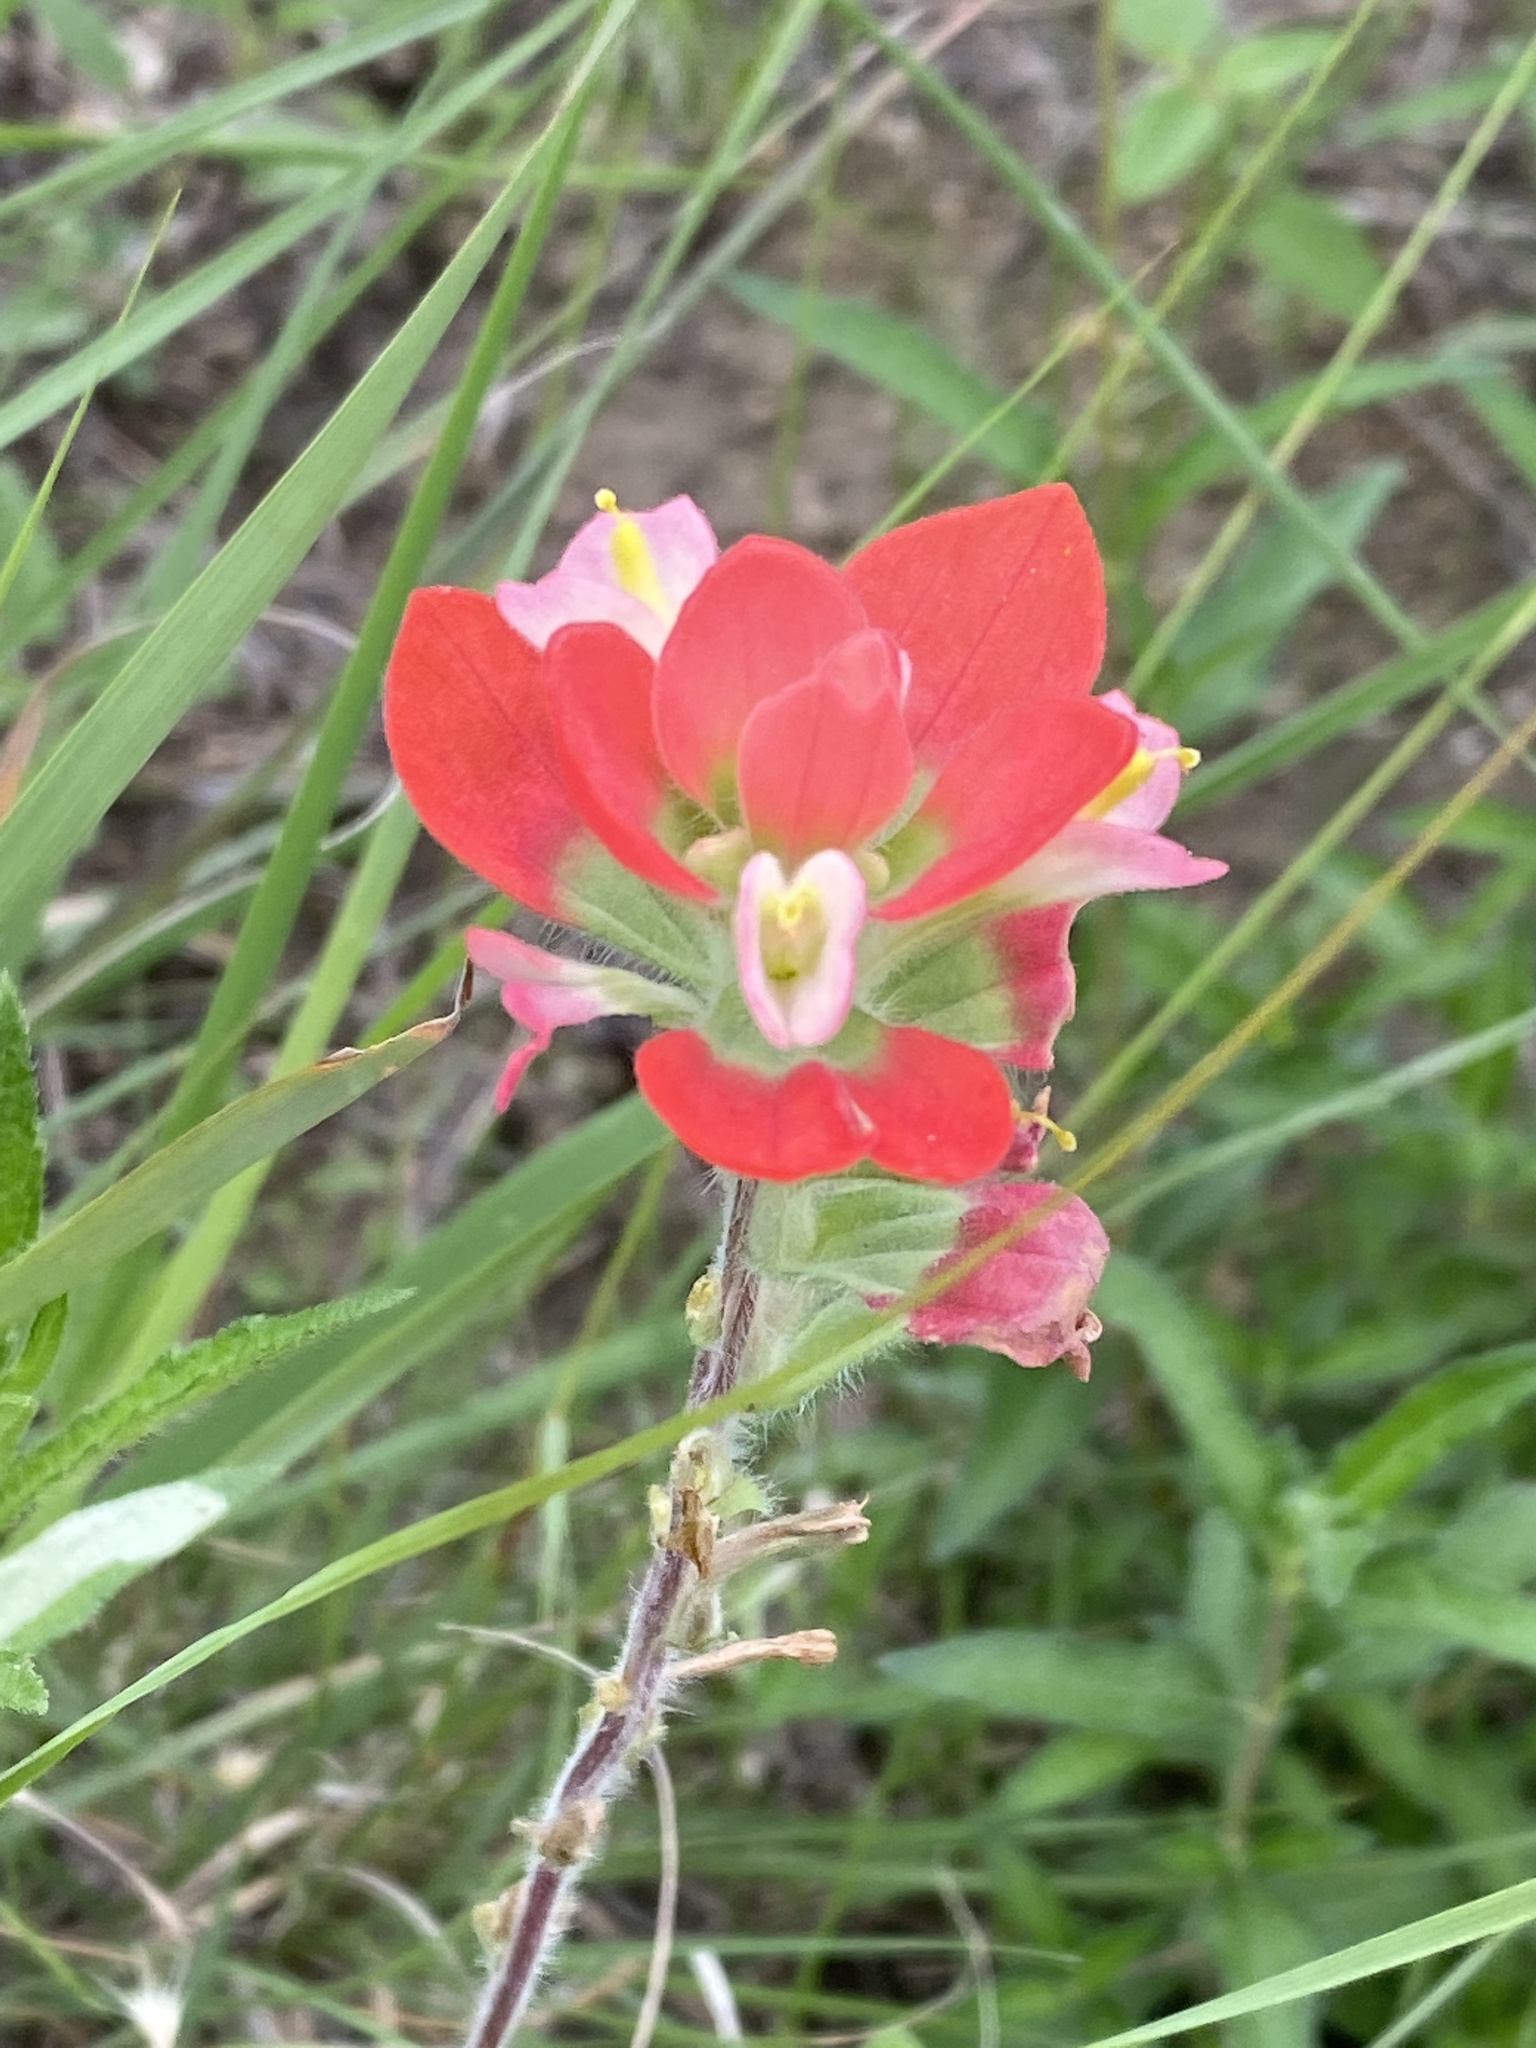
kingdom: Plantae
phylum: Tracheophyta
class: Magnoliopsida
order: Lamiales
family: Orobanchaceae
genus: Castilleja
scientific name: Castilleja indivisa
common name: Texas paintbrush
